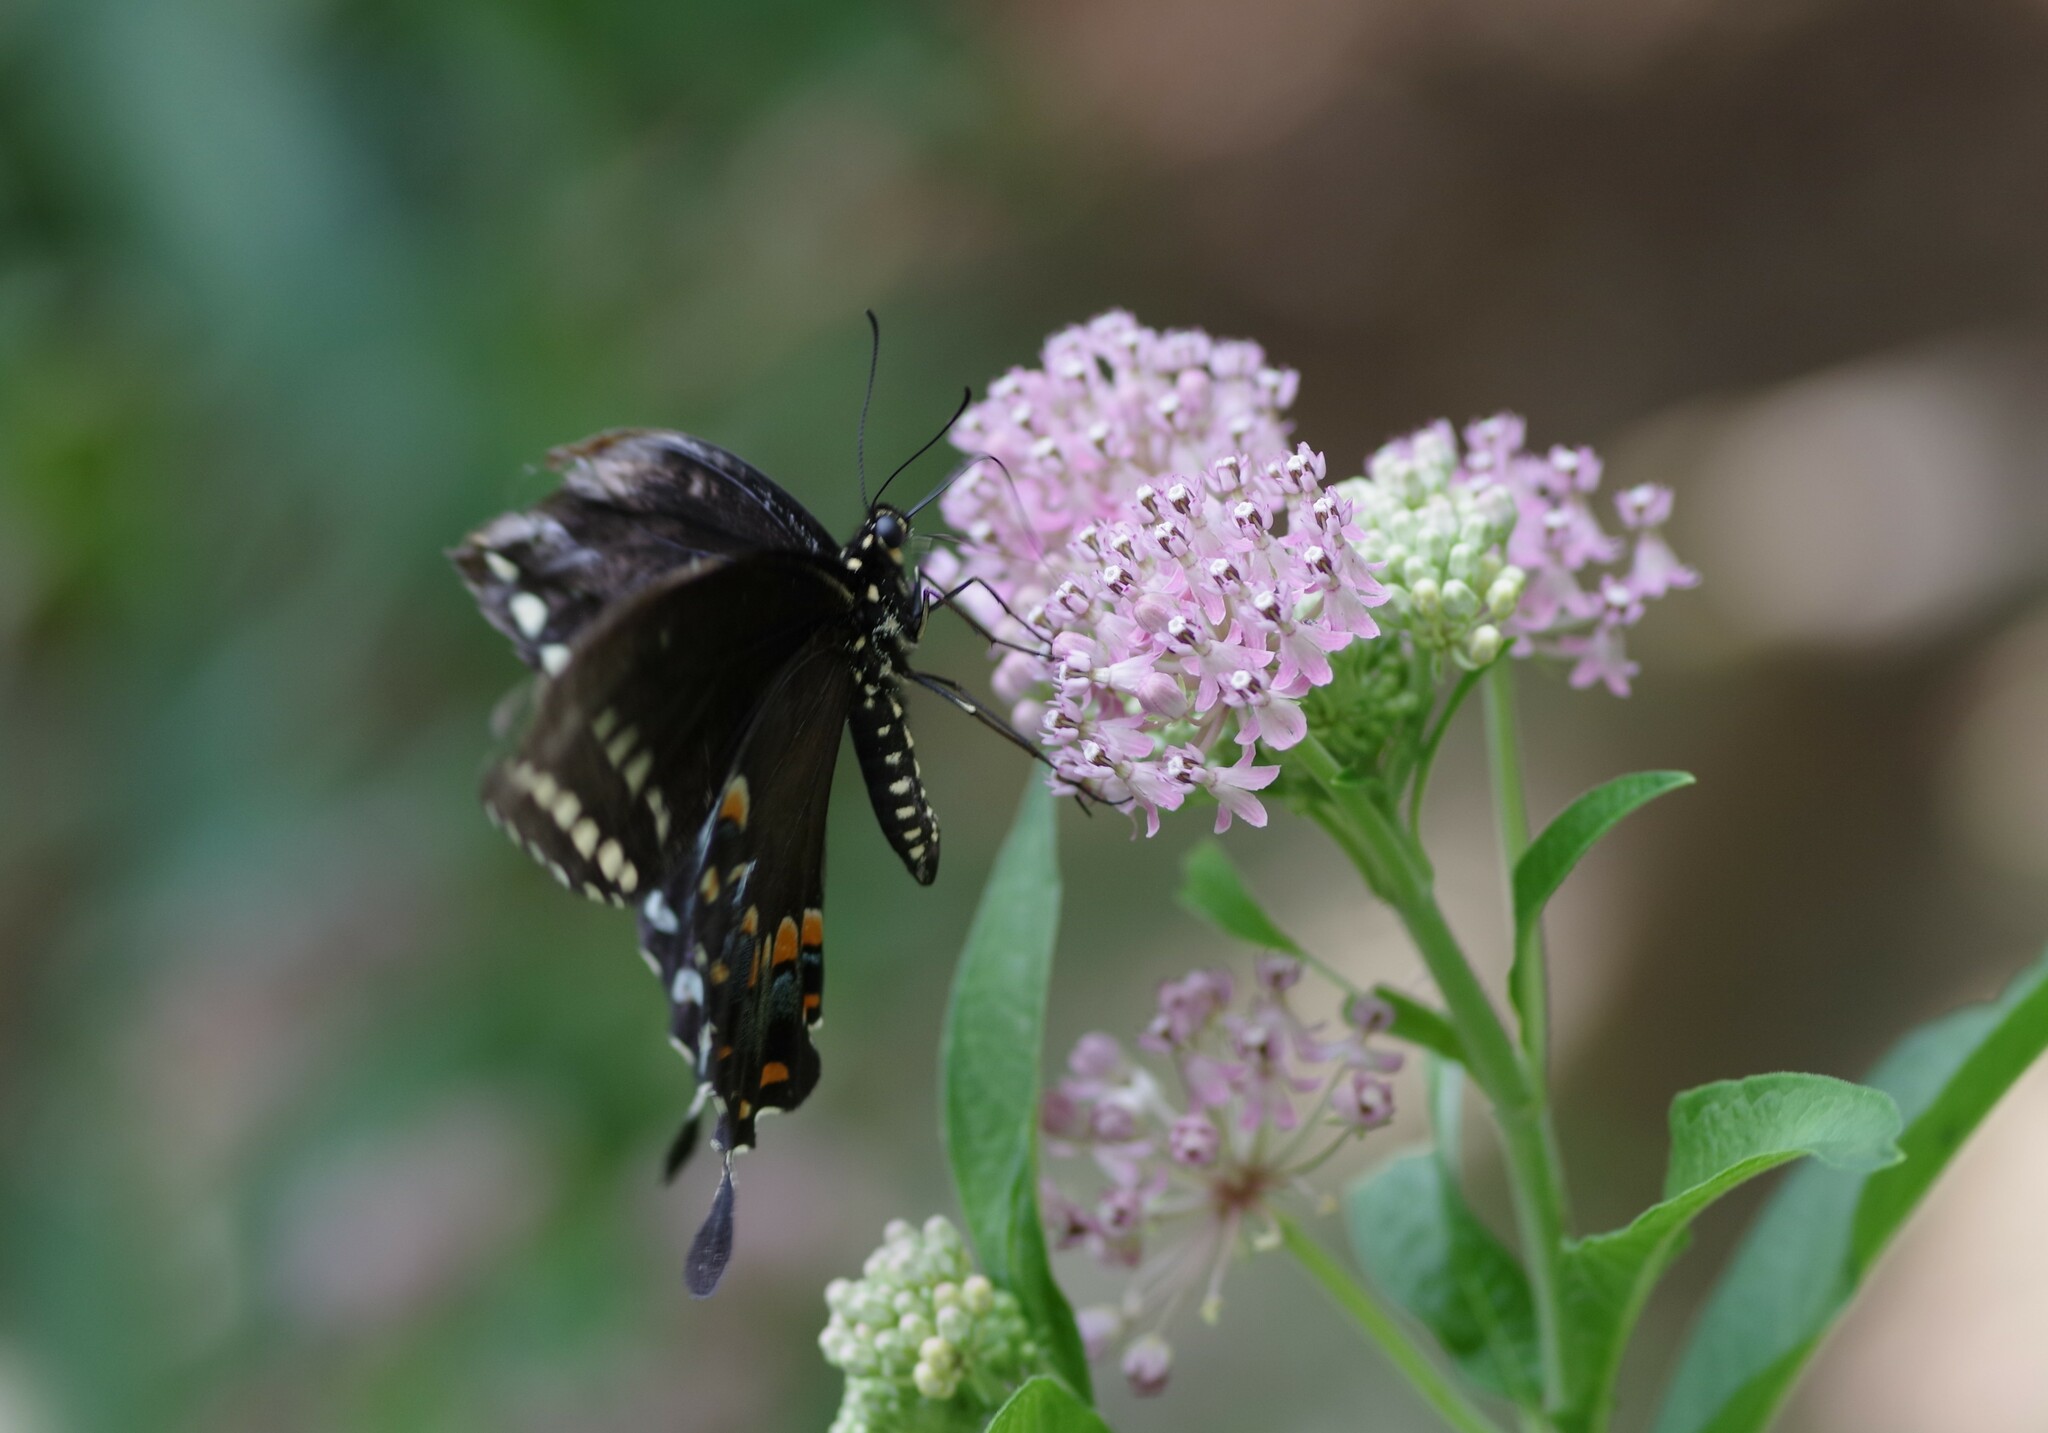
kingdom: Animalia
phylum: Arthropoda
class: Insecta
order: Lepidoptera
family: Papilionidae
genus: Papilio
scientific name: Papilio troilus
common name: Spicebush swallowtail
